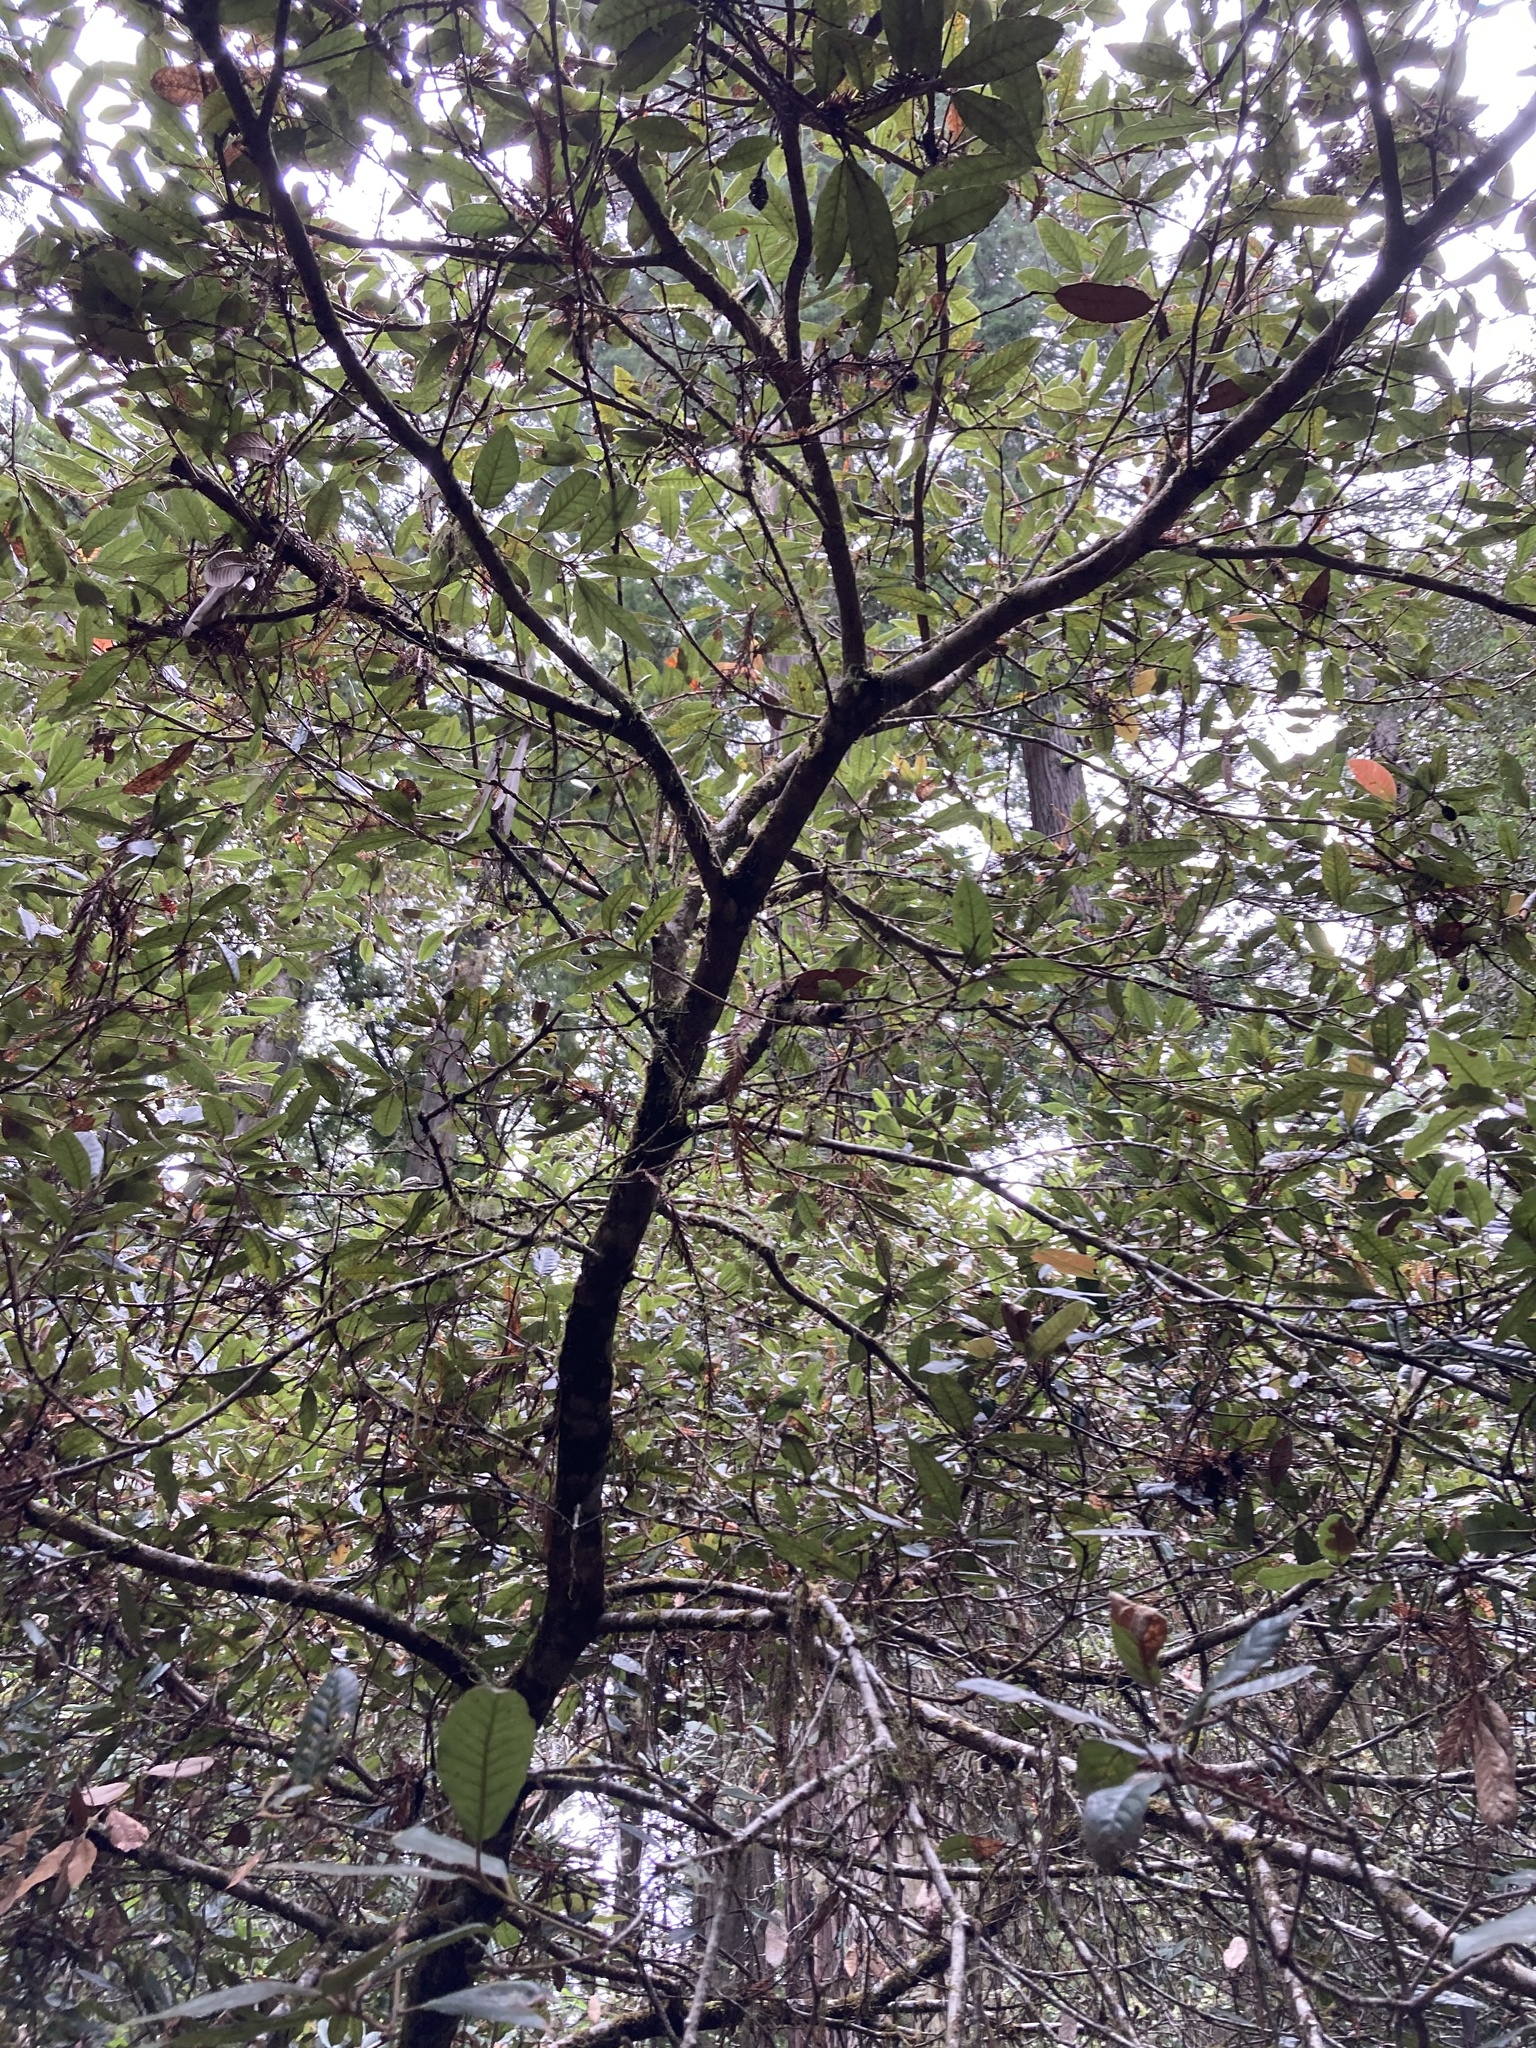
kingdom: Plantae
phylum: Tracheophyta
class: Magnoliopsida
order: Fagales
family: Fagaceae
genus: Notholithocarpus
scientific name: Notholithocarpus densiflorus
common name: Tan bark oak
